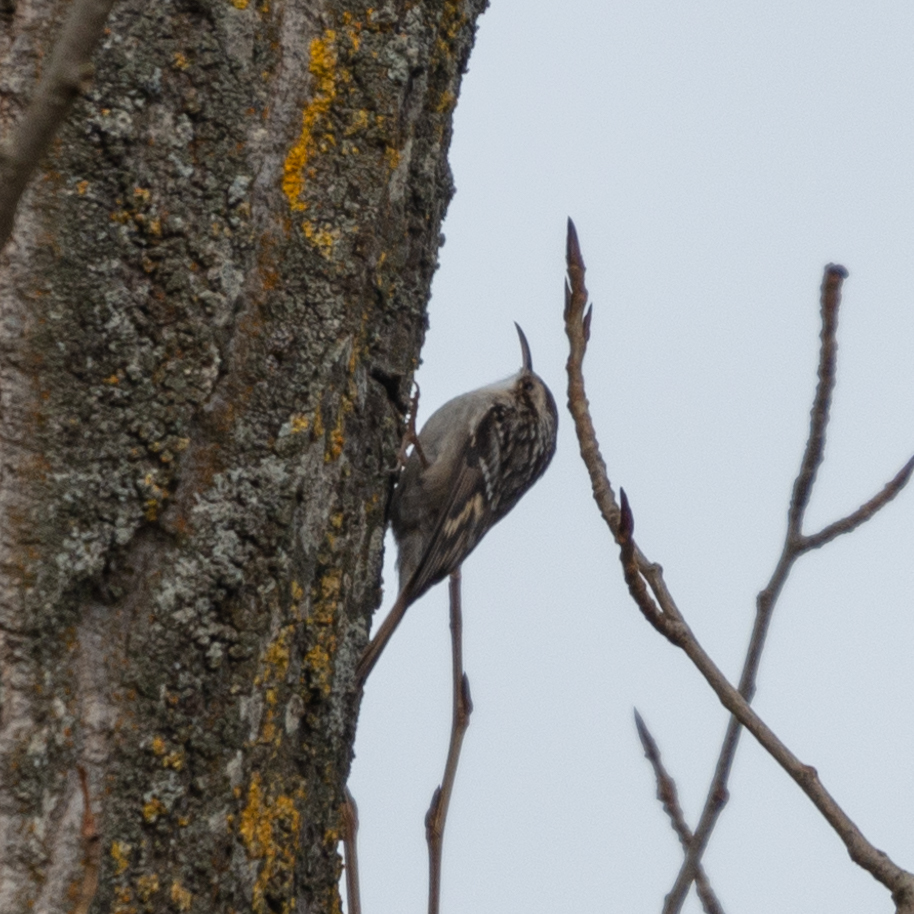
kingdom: Animalia
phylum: Chordata
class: Aves
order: Passeriformes
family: Certhiidae
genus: Certhia
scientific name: Certhia brachydactyla
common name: Short-toed treecreeper
